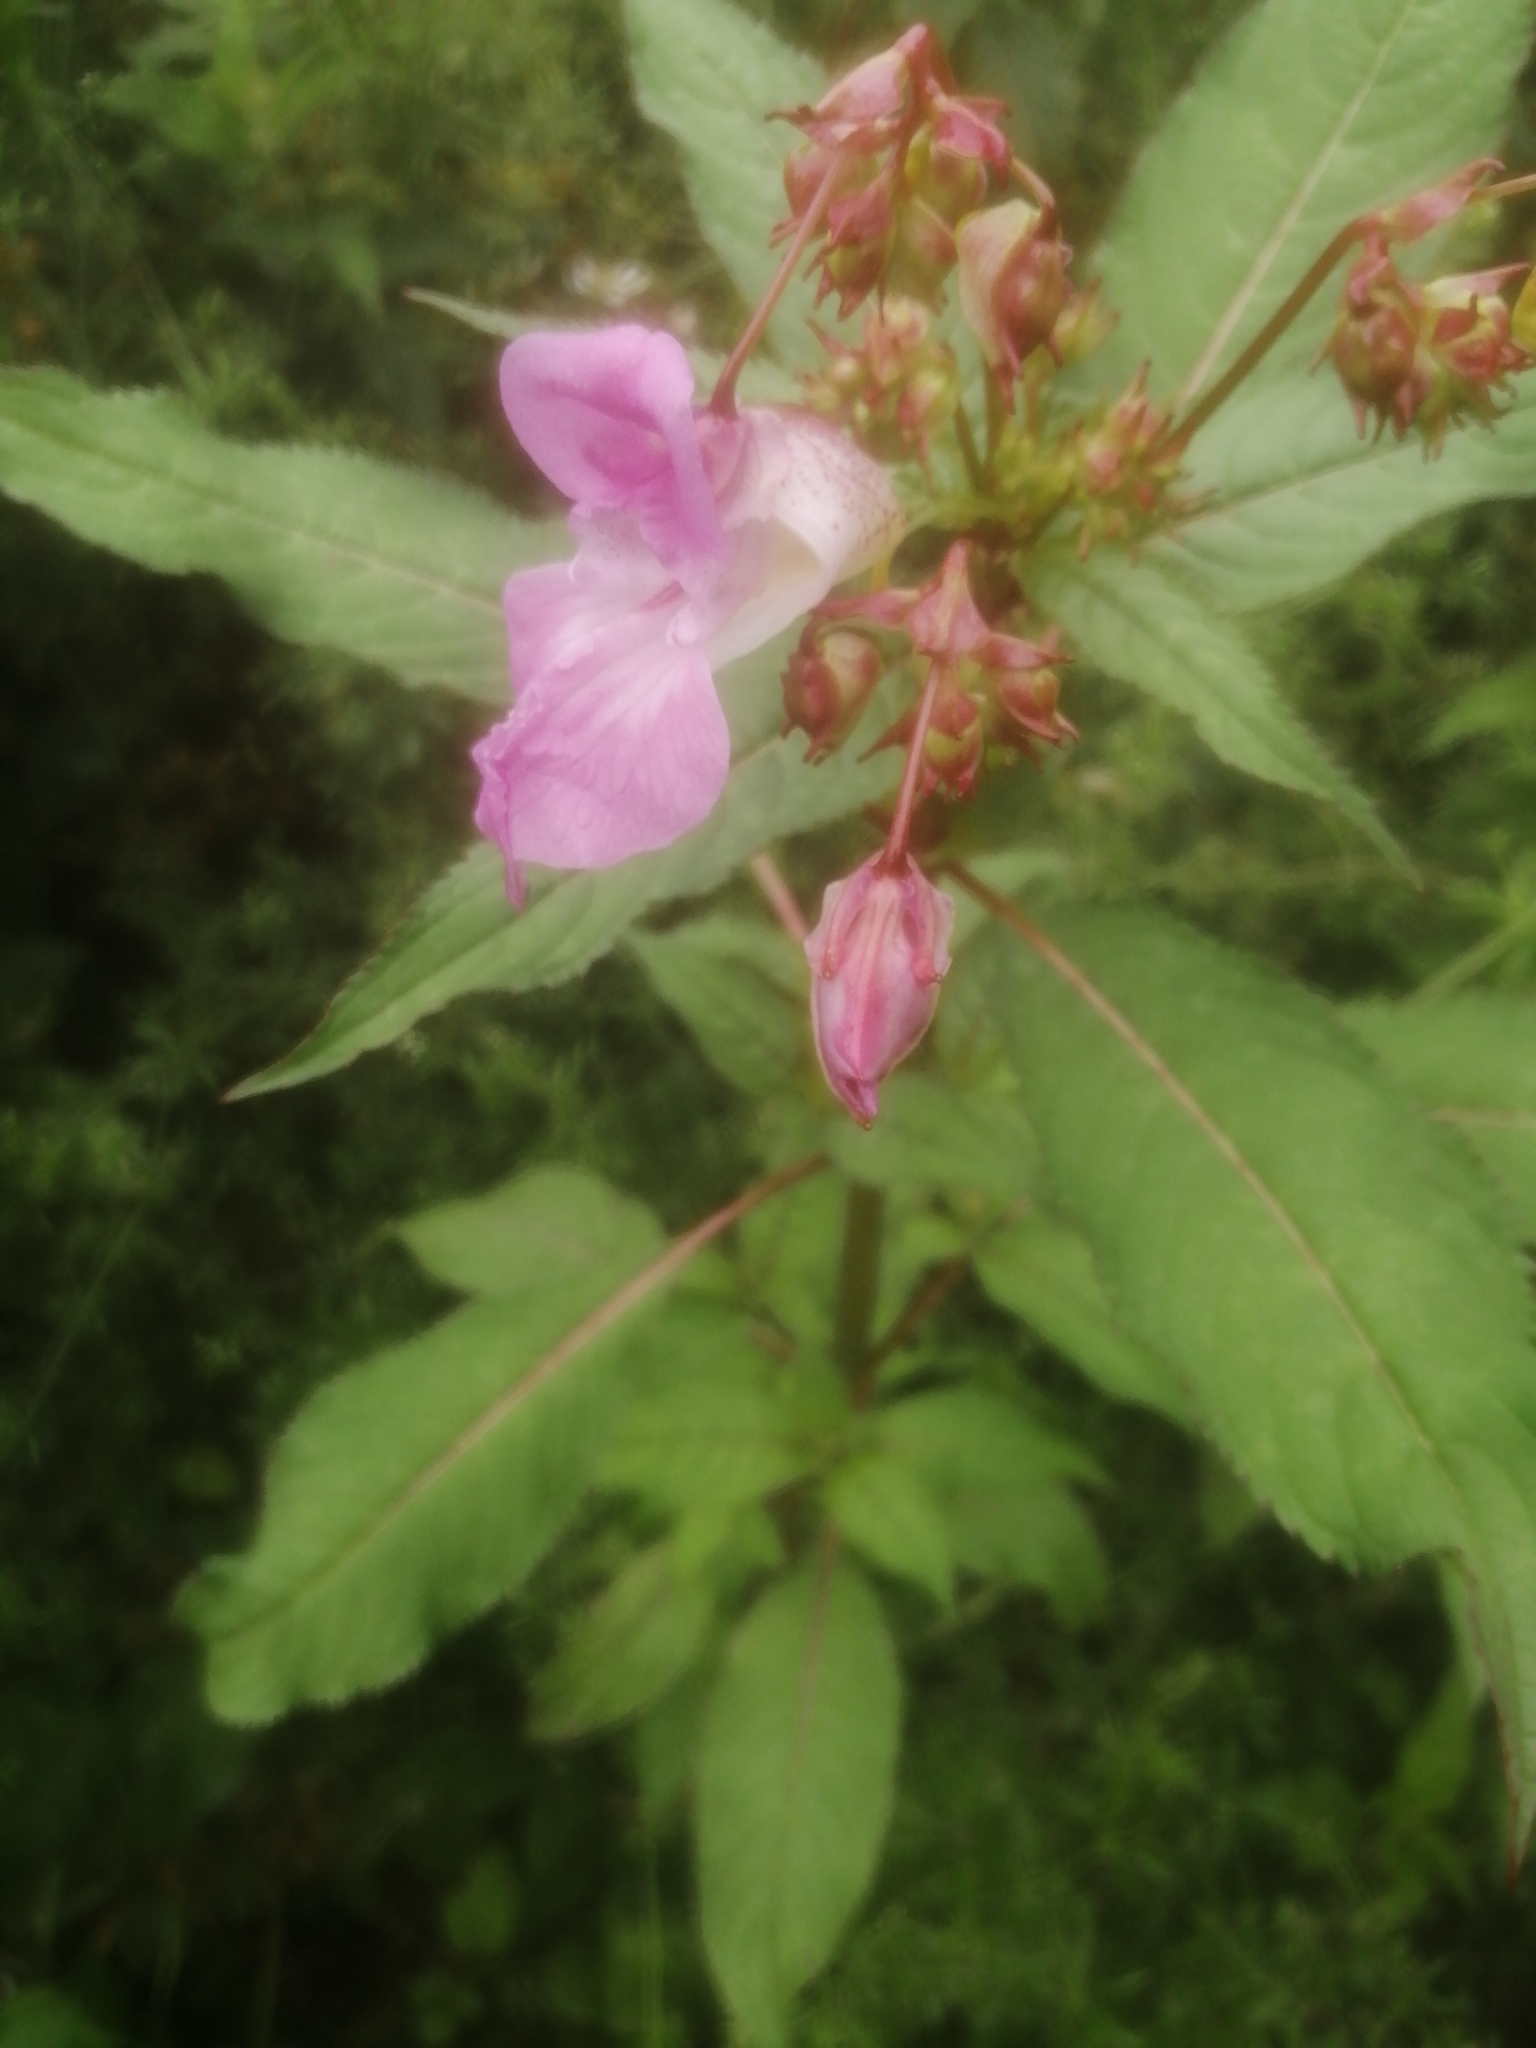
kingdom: Plantae
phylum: Tracheophyta
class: Magnoliopsida
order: Ericales
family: Balsaminaceae
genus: Impatiens
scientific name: Impatiens glandulifera
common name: Himalayan balsam
